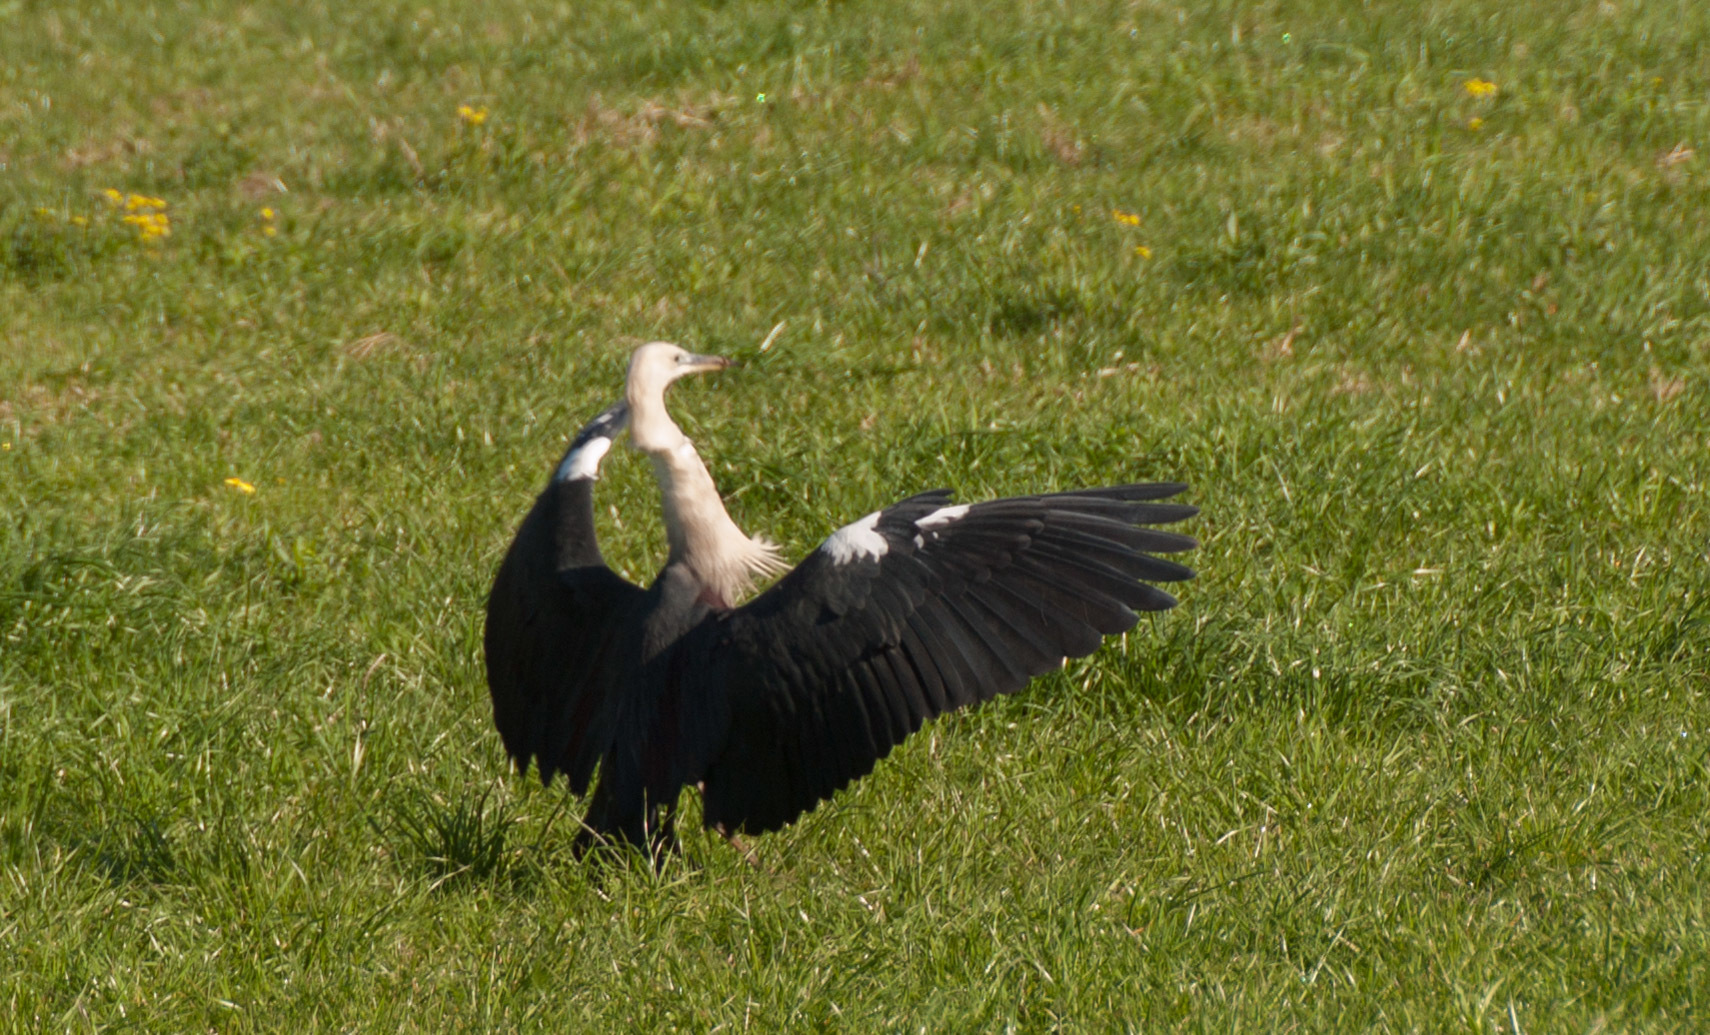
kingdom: Animalia
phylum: Chordata
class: Aves
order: Pelecaniformes
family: Ardeidae
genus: Ardea
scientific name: Ardea pacifica
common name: White-necked heron
